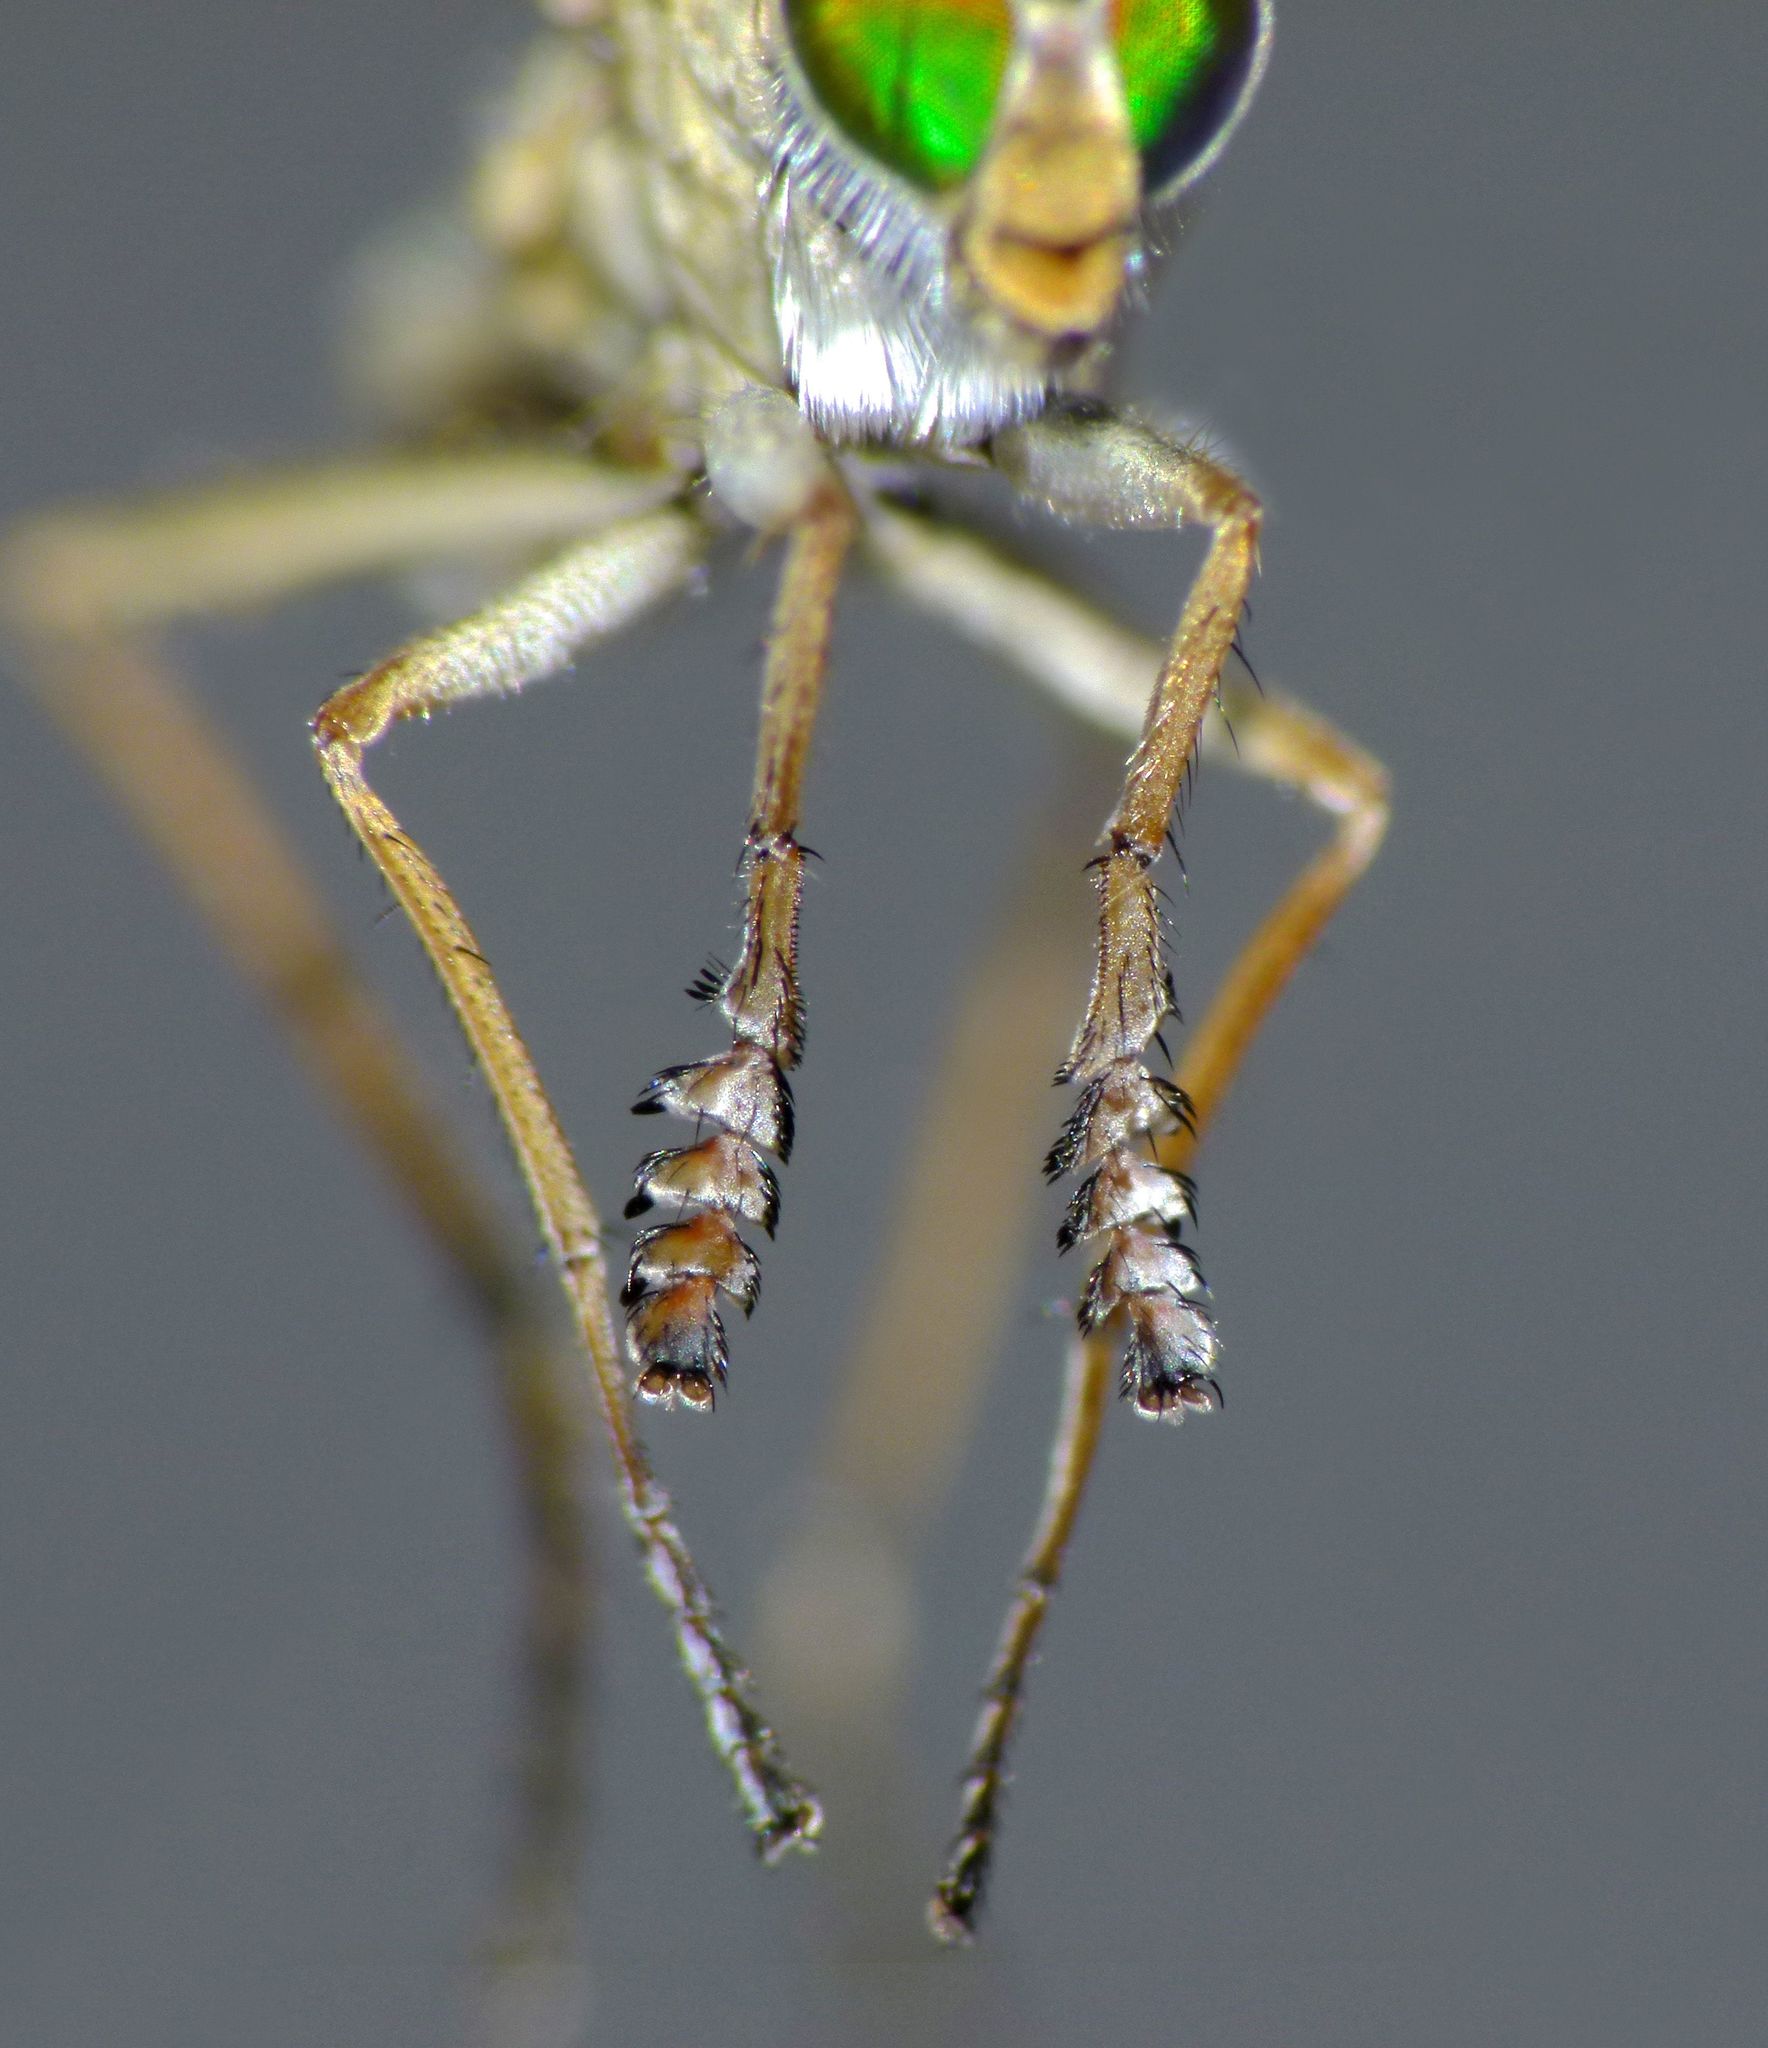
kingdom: Animalia
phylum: Arthropoda
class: Insecta
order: Diptera
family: Dolichopodidae
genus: Scorpiurus
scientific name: Scorpiurus aramoana
